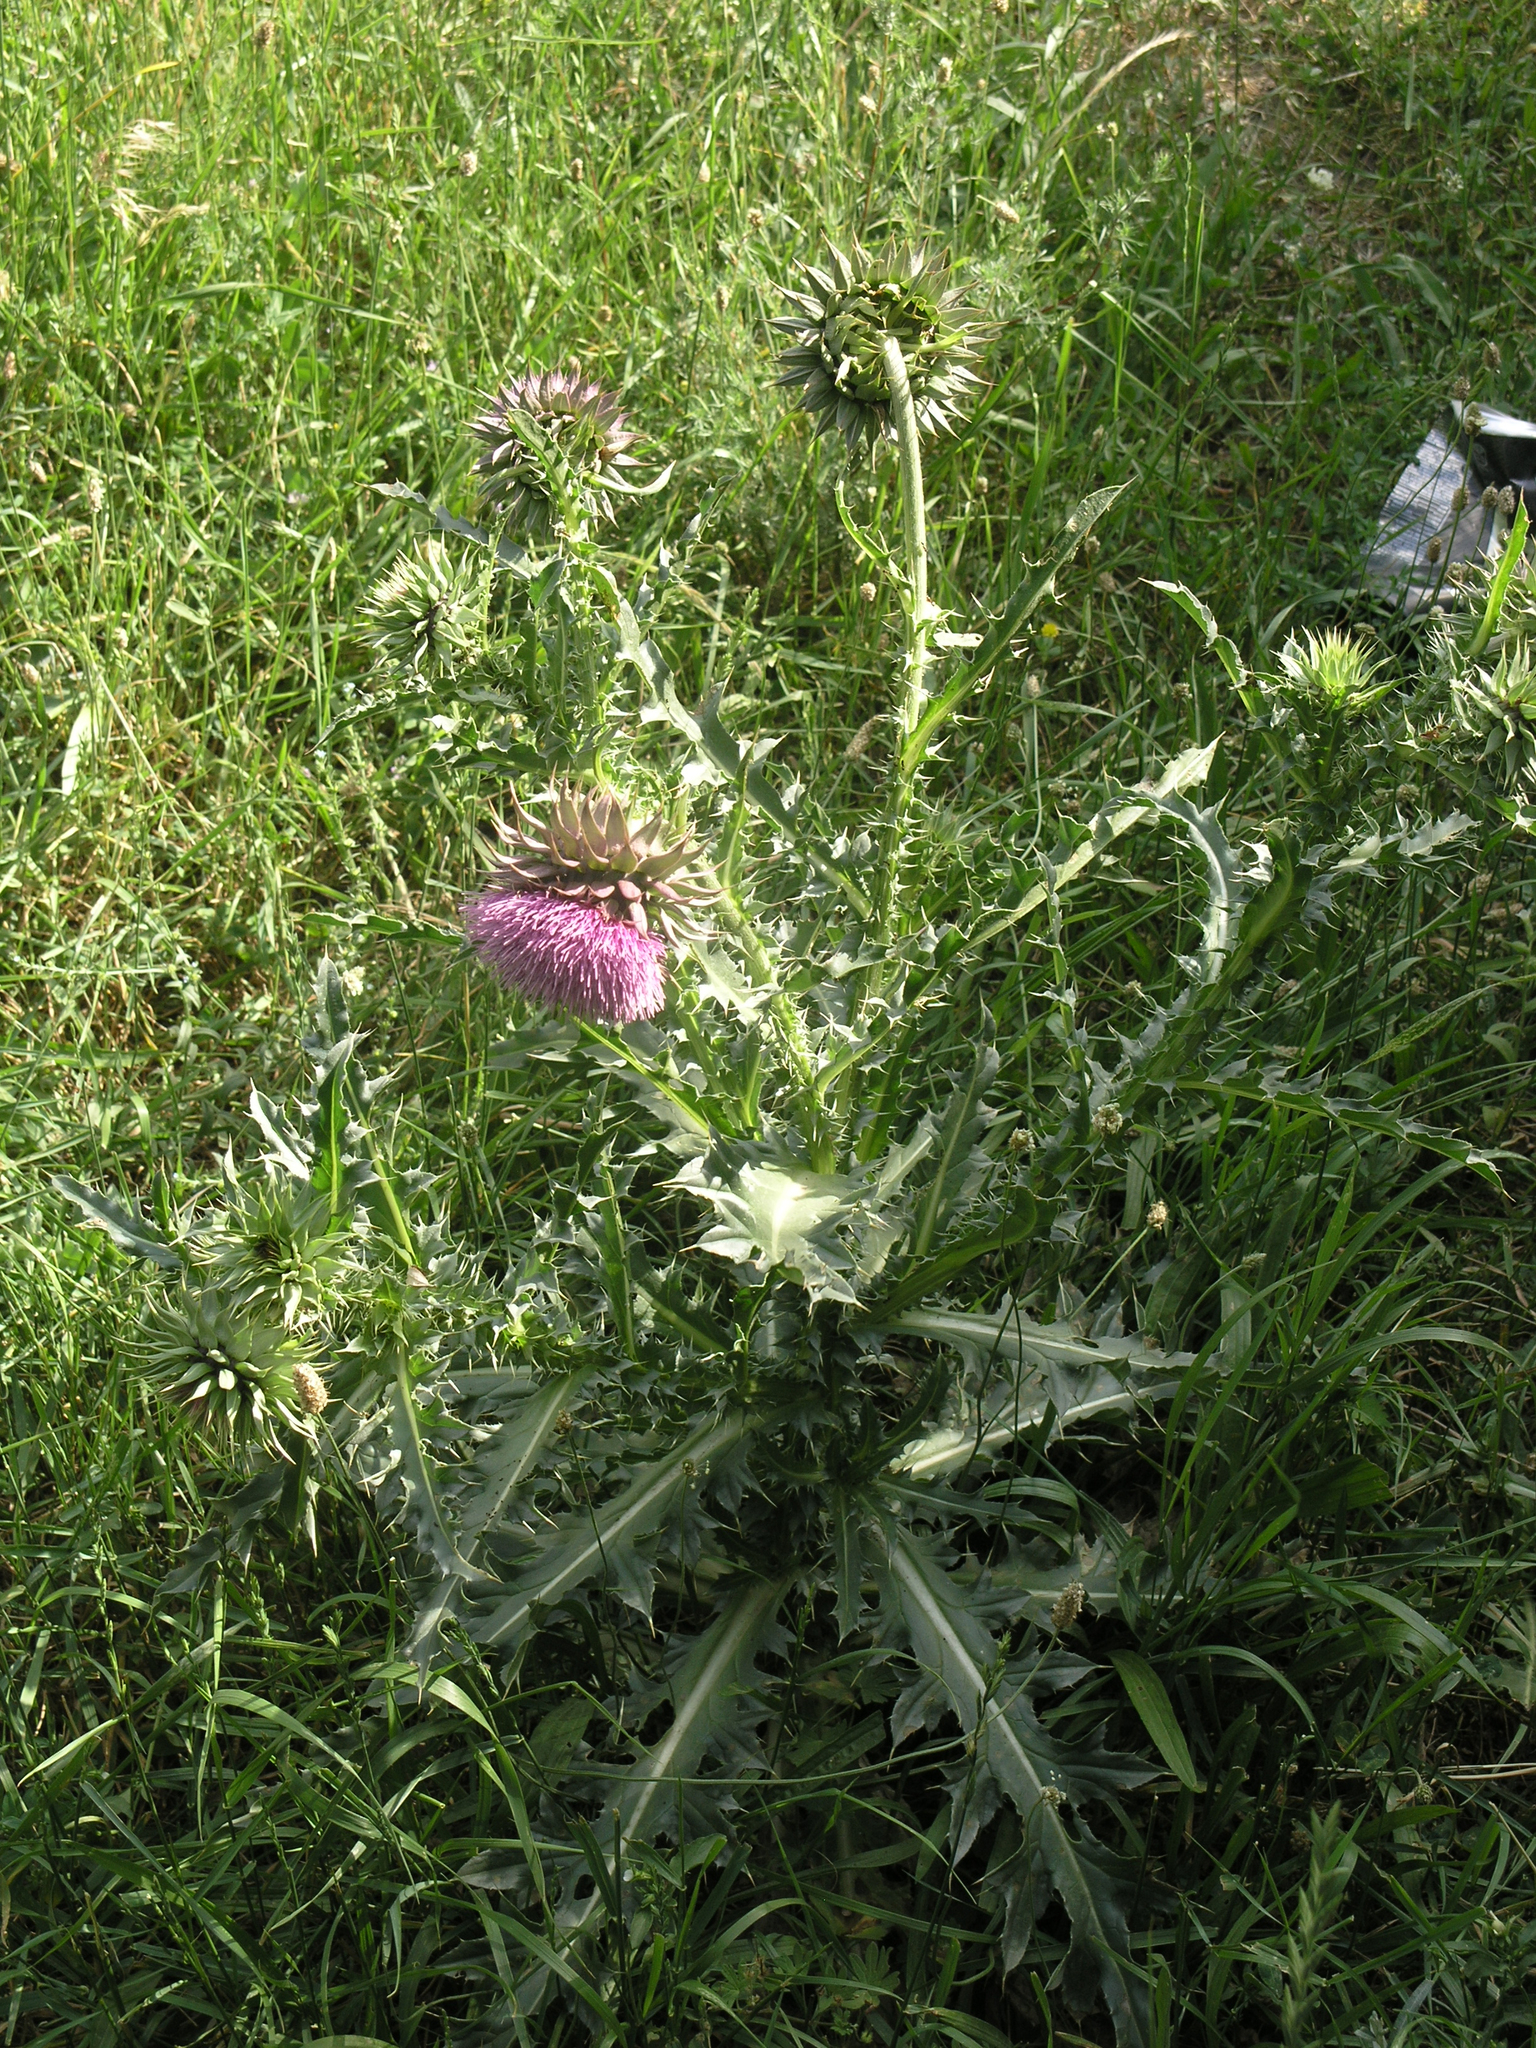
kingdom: Plantae
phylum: Tracheophyta
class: Magnoliopsida
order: Asterales
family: Asteraceae
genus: Carduus
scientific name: Carduus nutans
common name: Musk thistle
